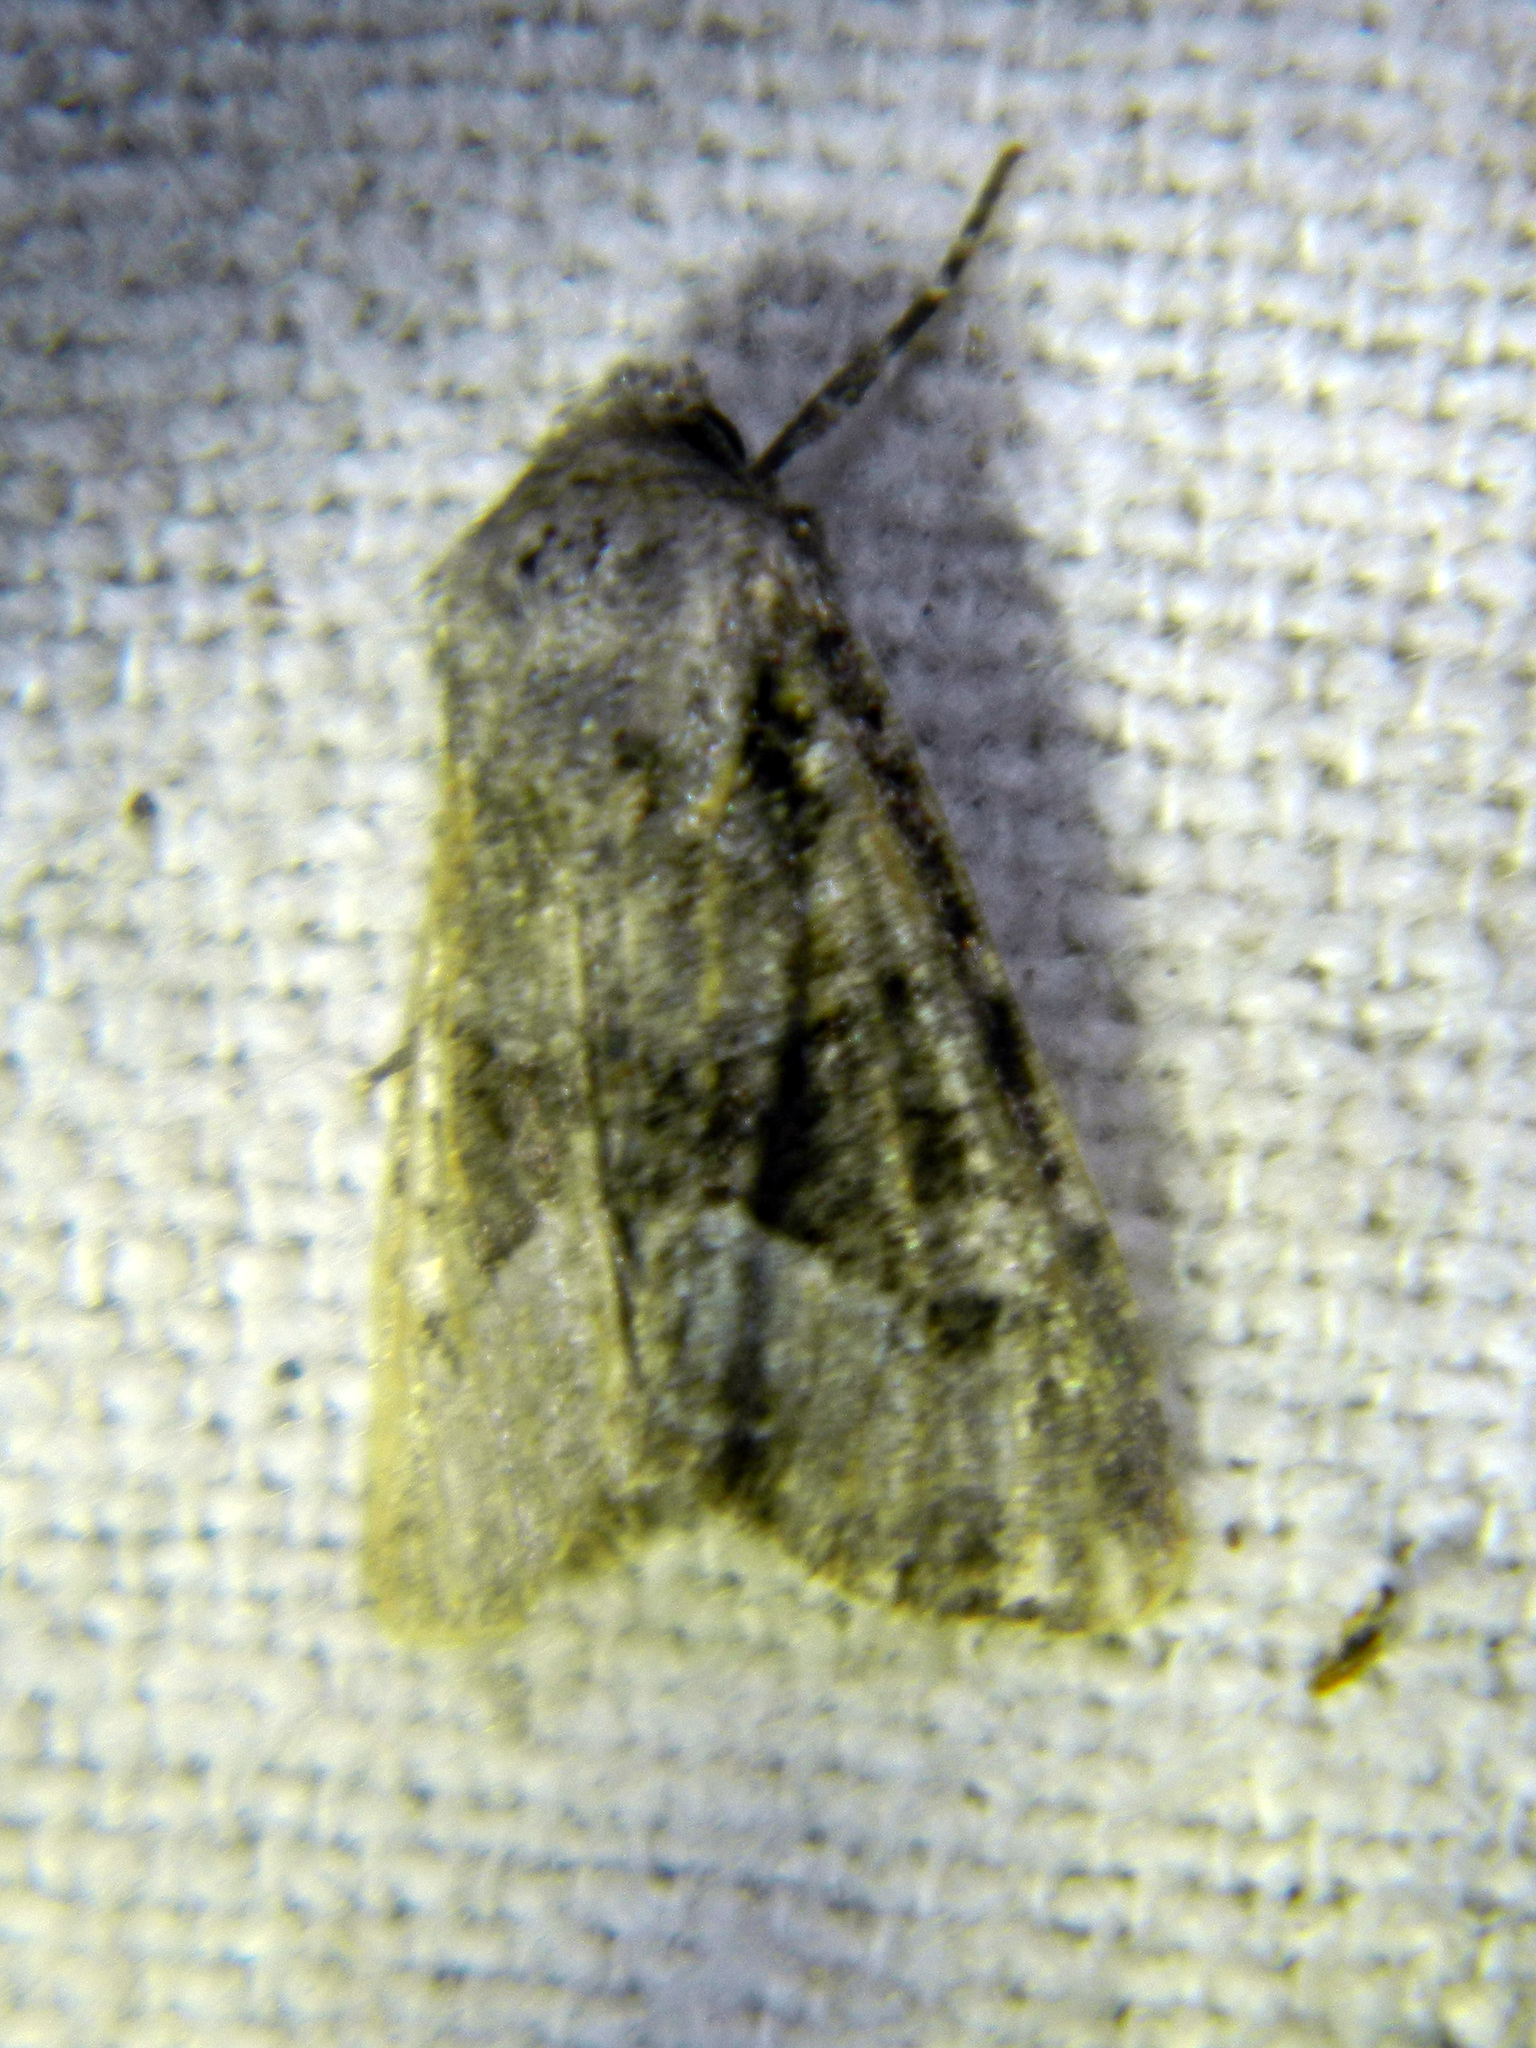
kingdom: Animalia
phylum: Arthropoda
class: Insecta
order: Lepidoptera
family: Noctuidae
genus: Lacinipolia
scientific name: Lacinipolia olivacea
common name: Olive arches moth
